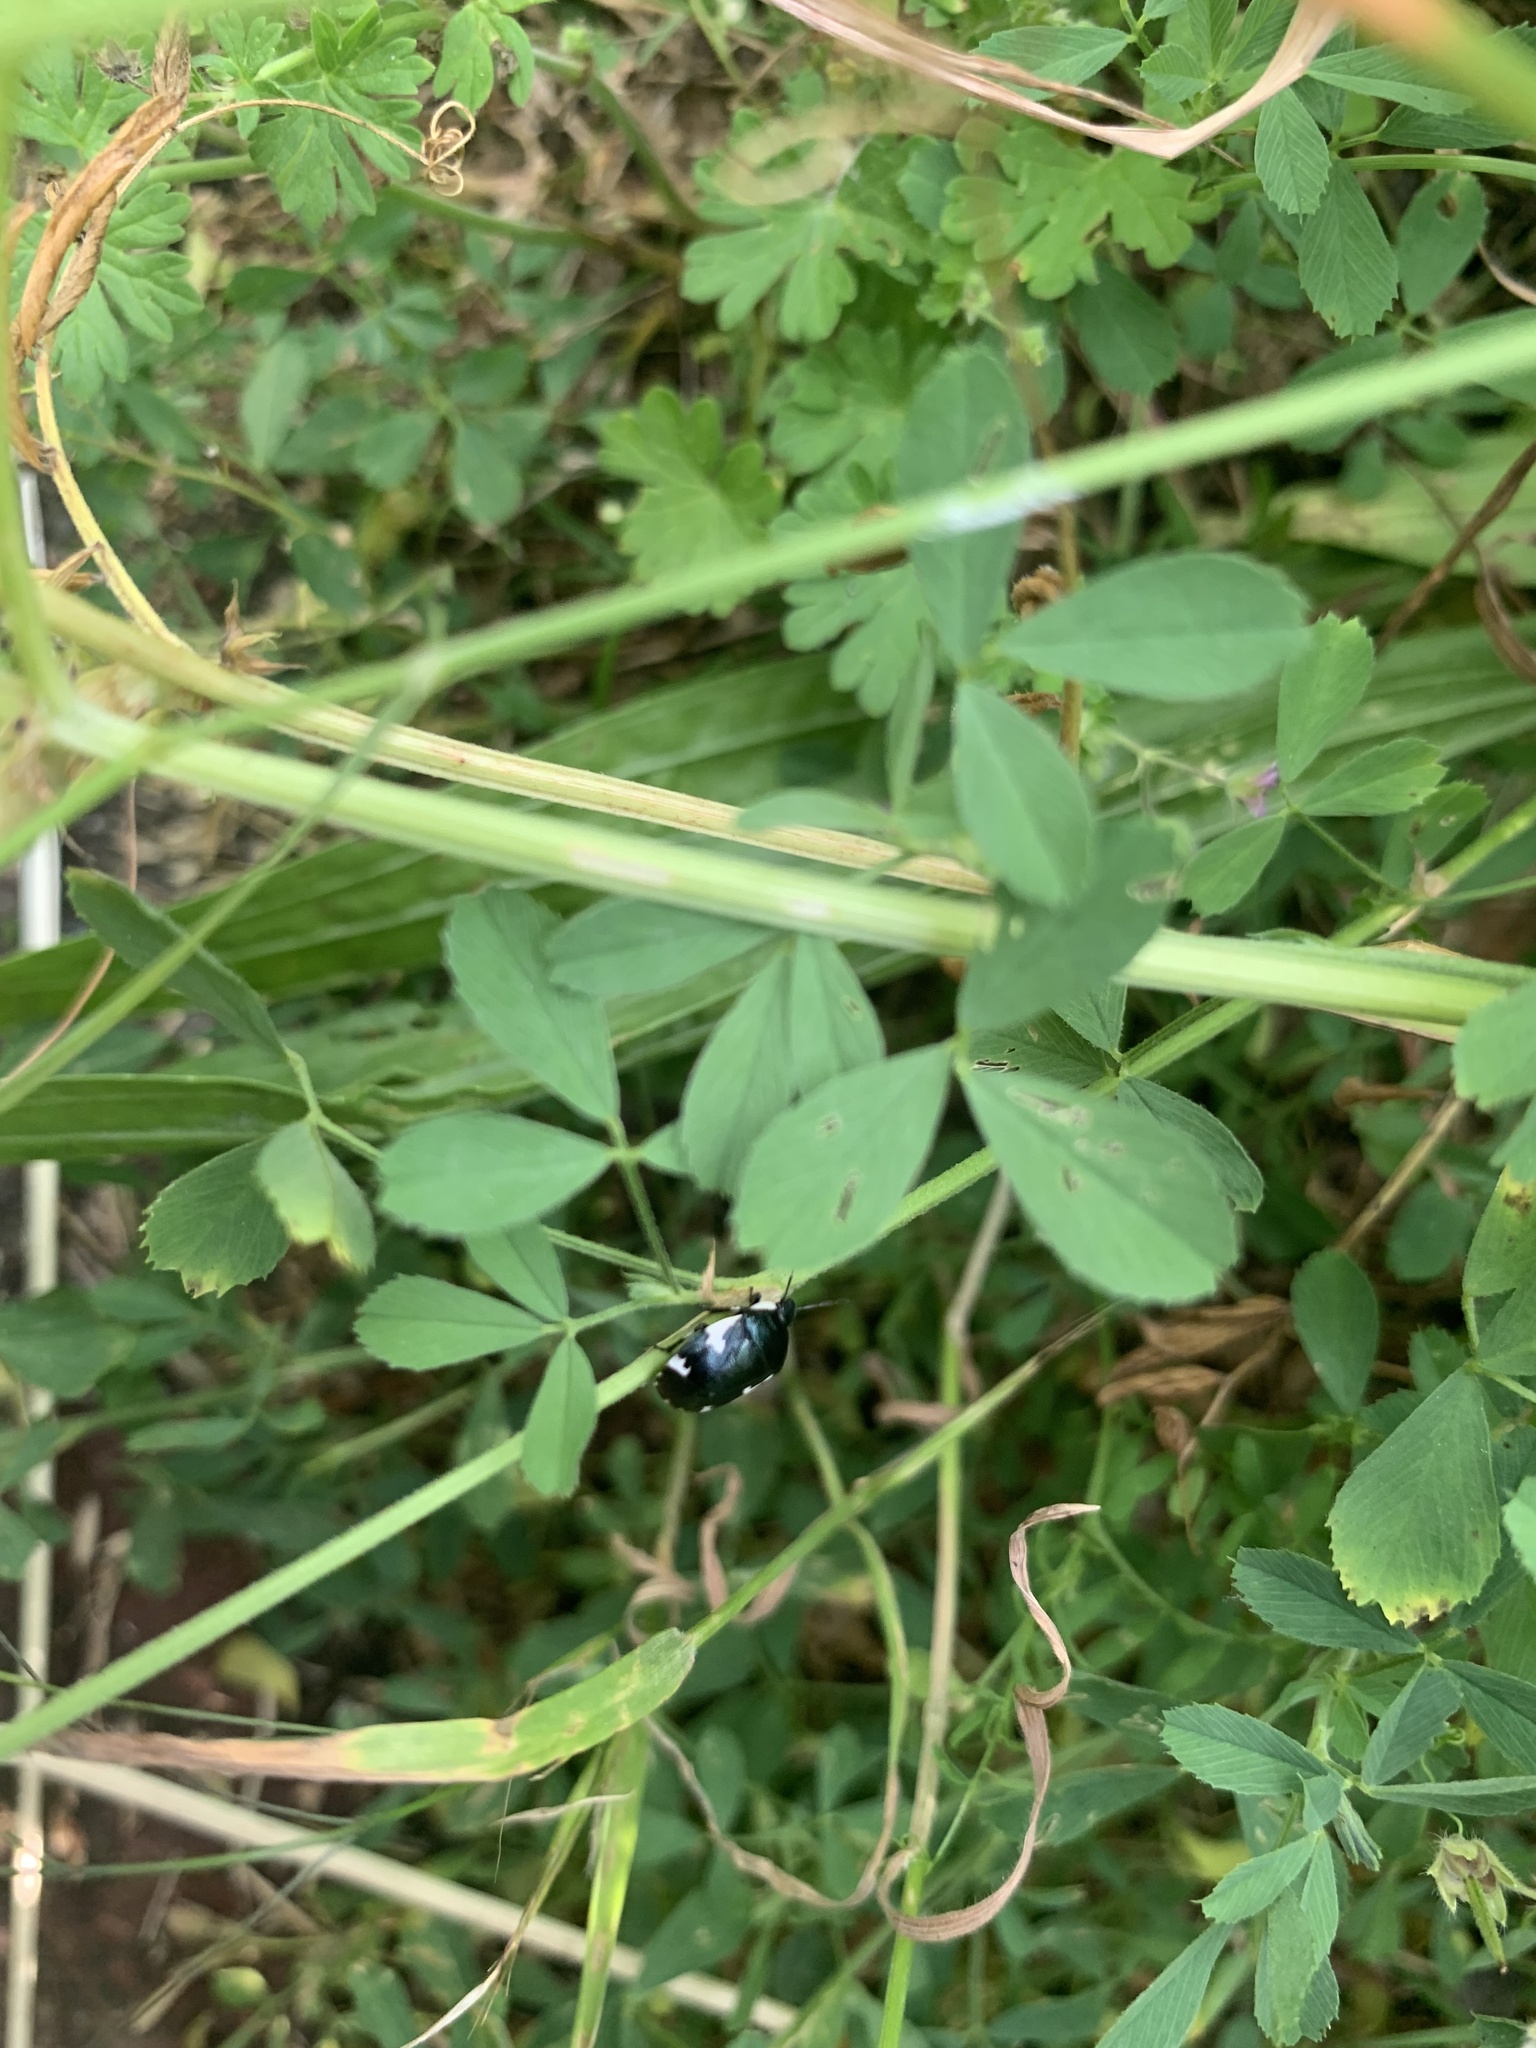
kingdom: Animalia
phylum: Arthropoda
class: Insecta
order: Hemiptera
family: Cydnidae
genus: Tritomegas
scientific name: Tritomegas sexmaculatus
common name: Rambur's pied shieldbug
